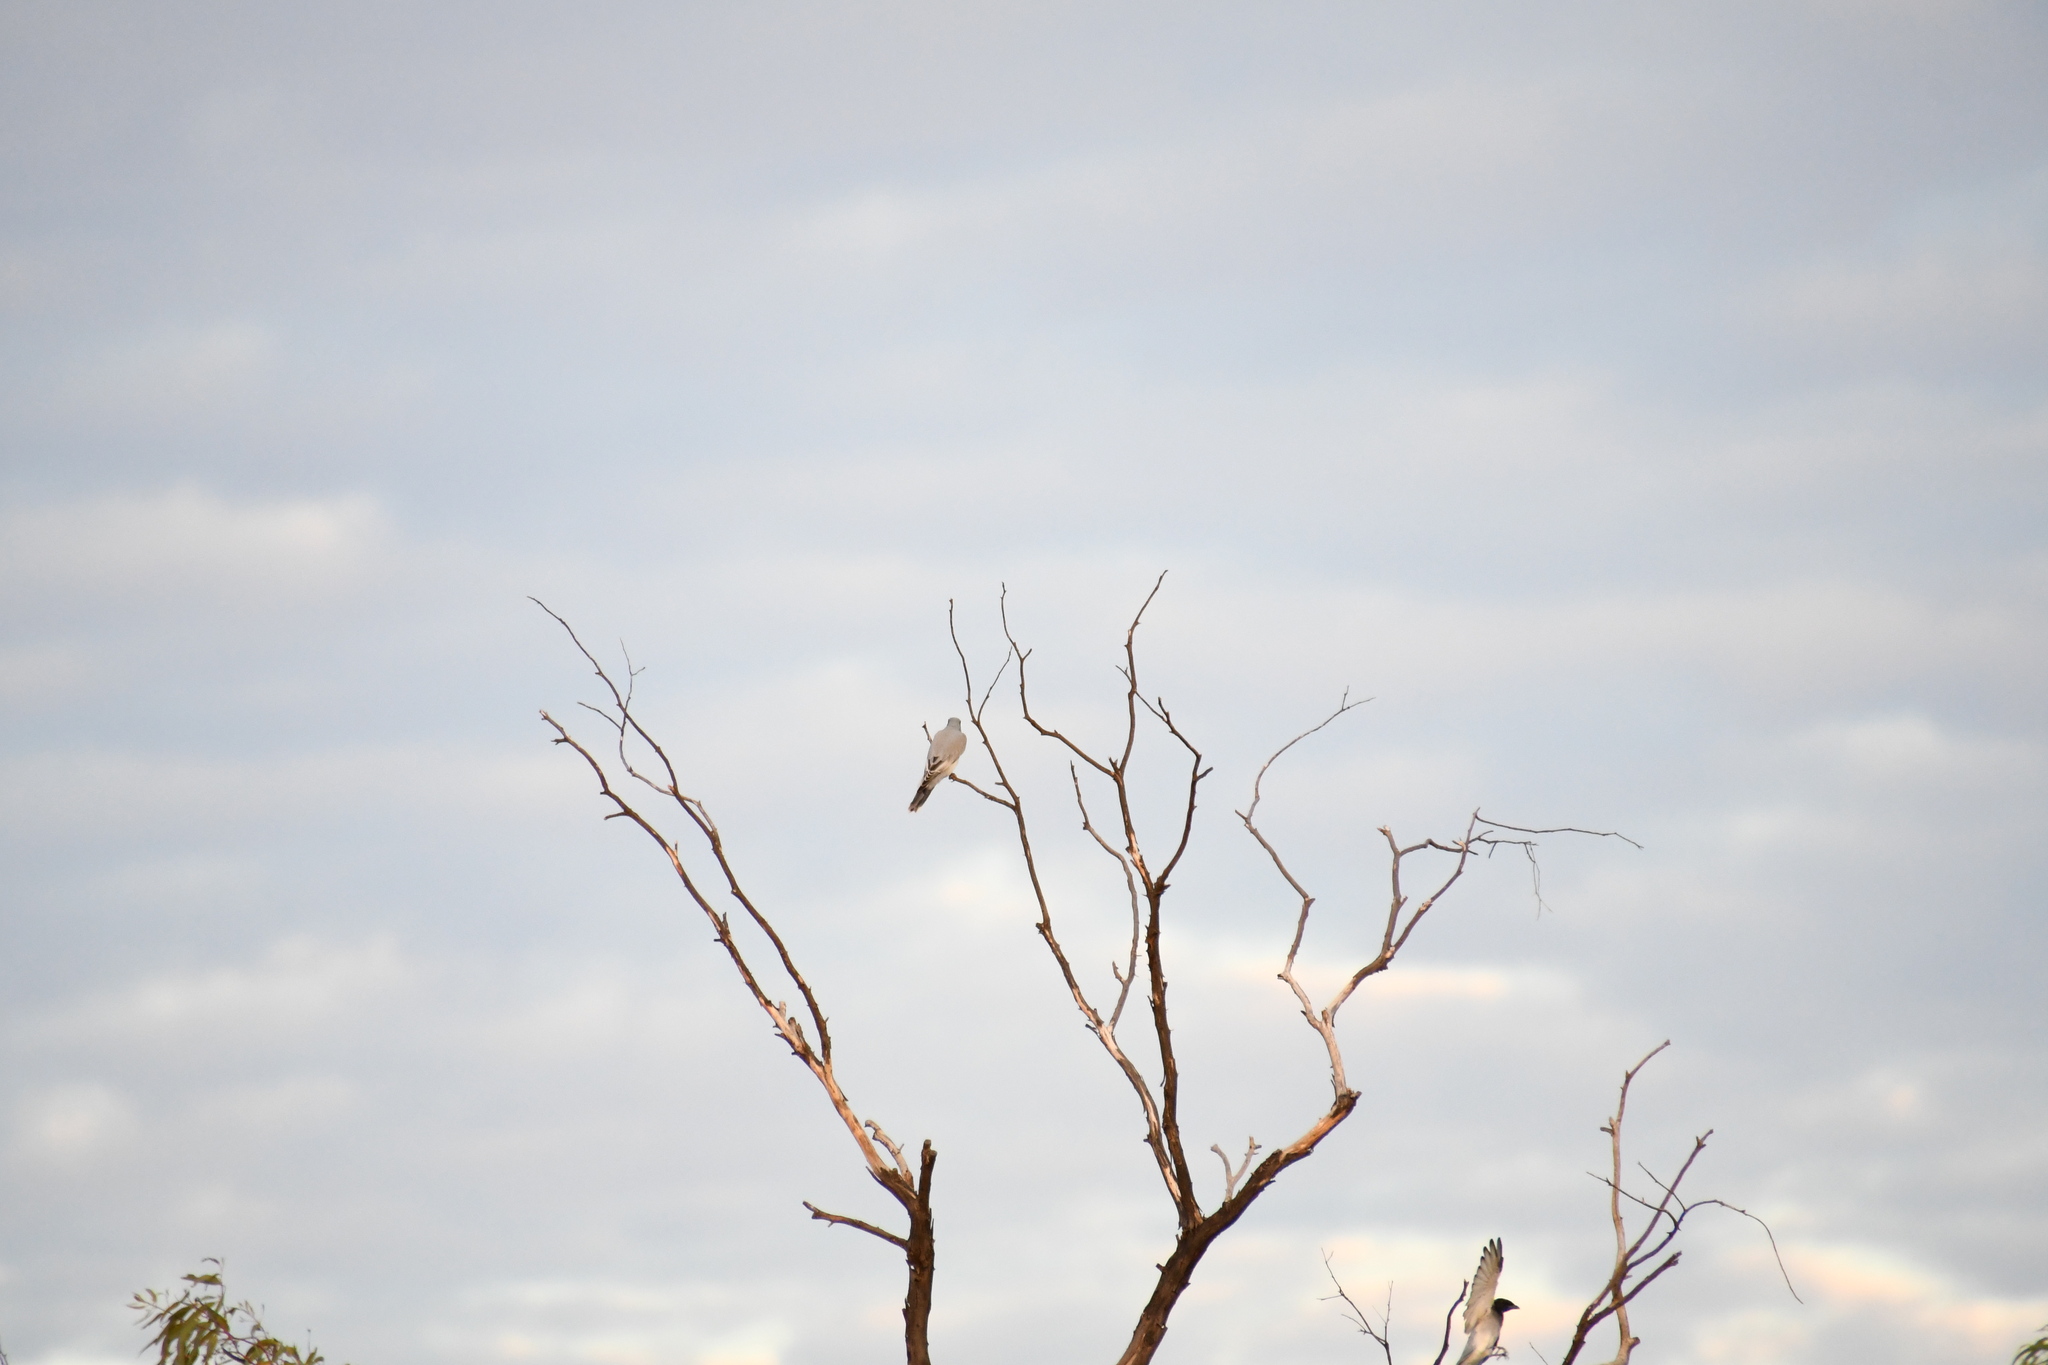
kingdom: Animalia
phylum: Chordata
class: Aves
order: Passeriformes
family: Campephagidae
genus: Coracina
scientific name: Coracina novaehollandiae
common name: Black-faced cuckooshrike
